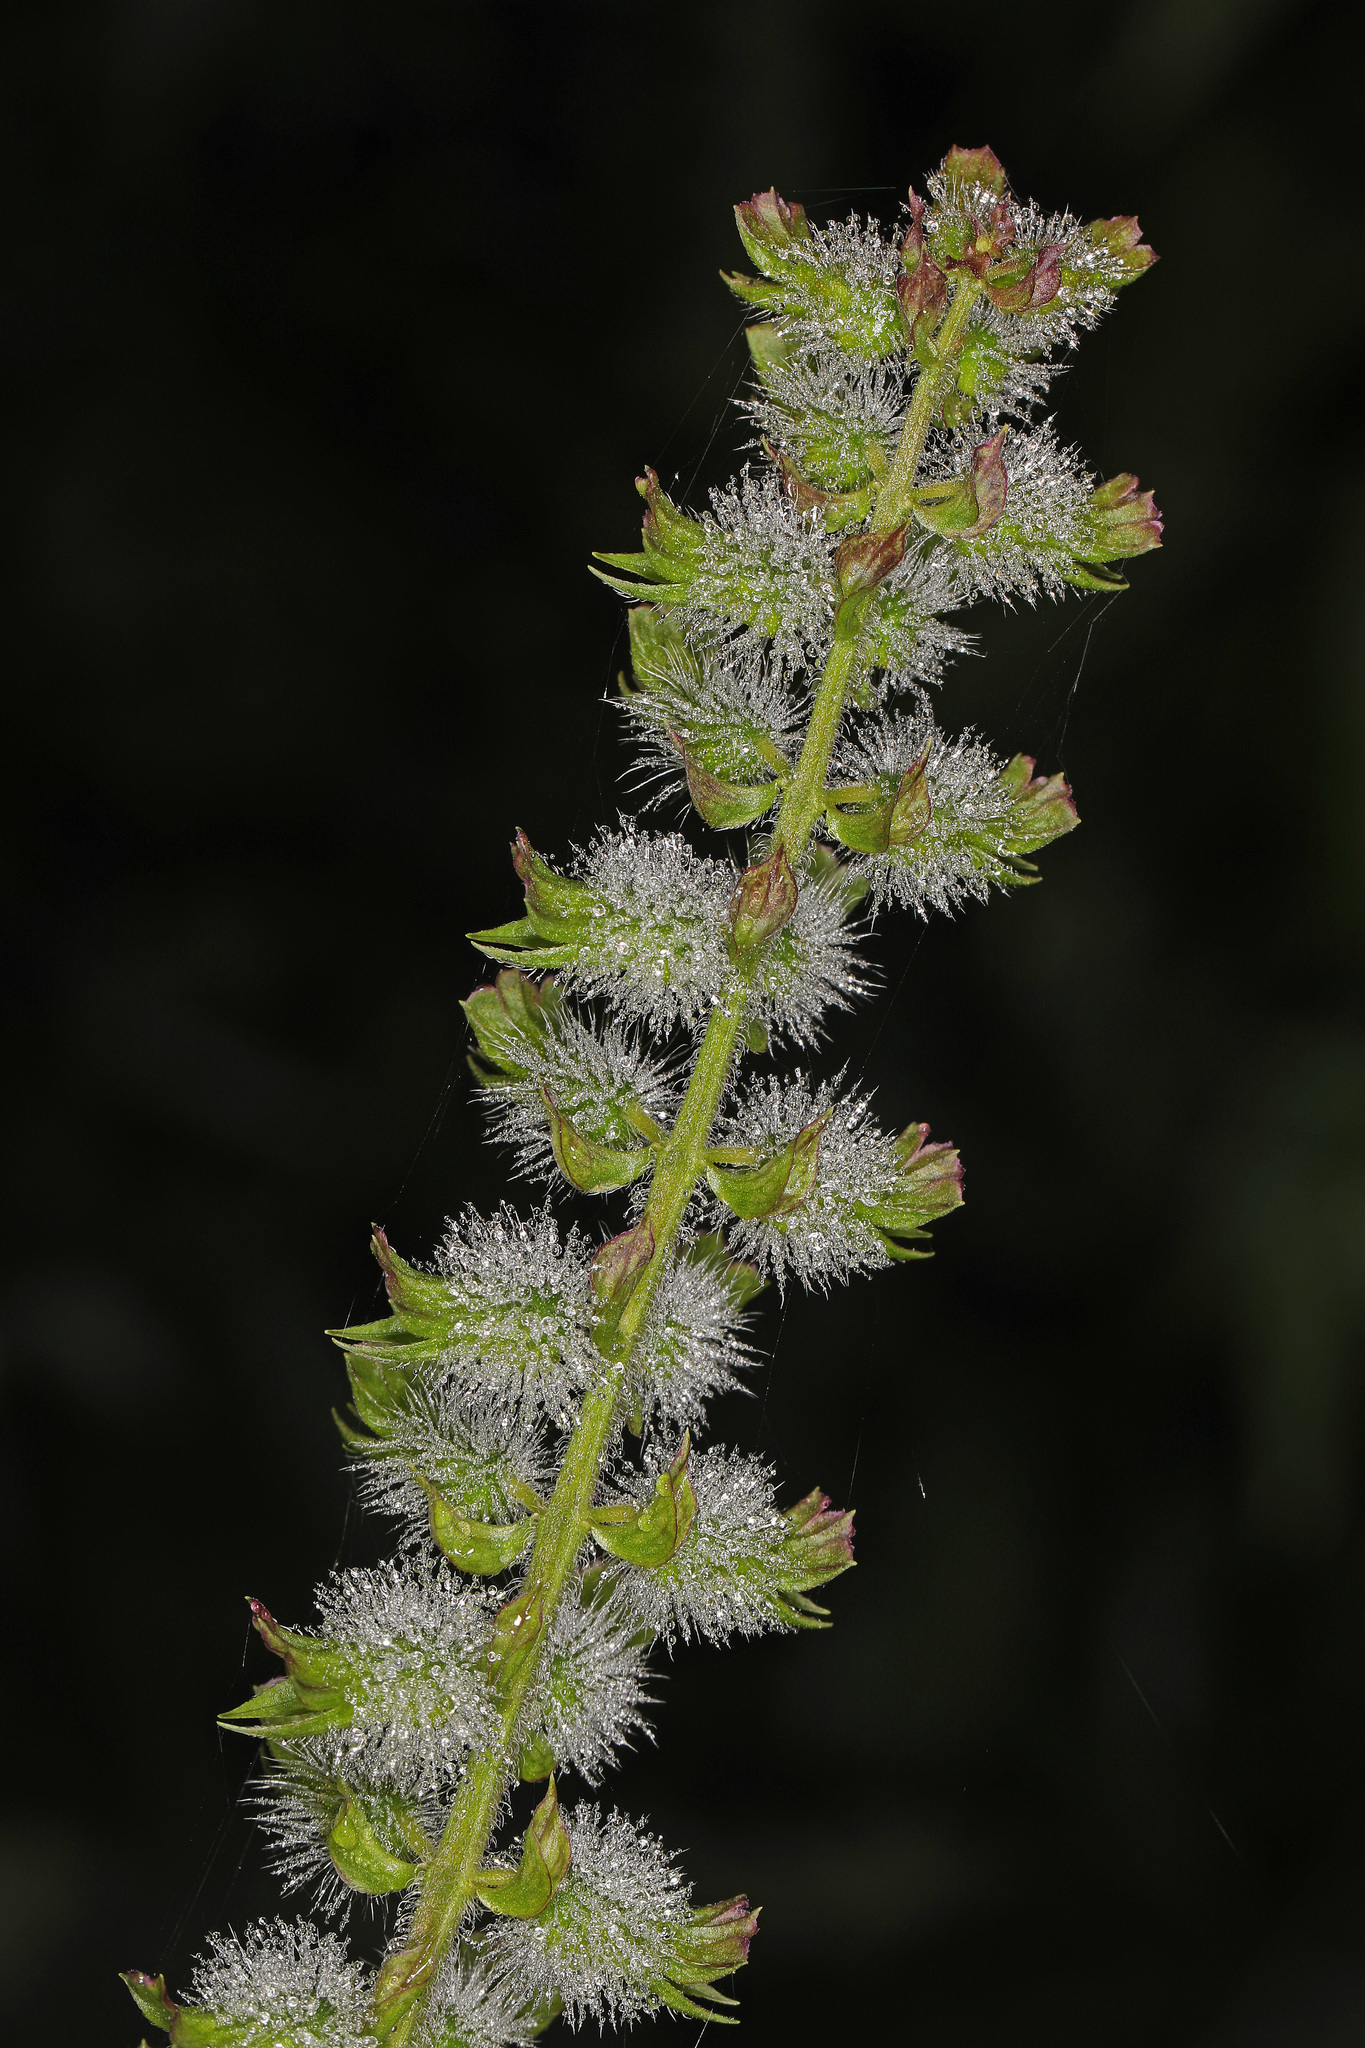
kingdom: Plantae
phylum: Tracheophyta
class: Magnoliopsida
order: Lamiales
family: Lamiaceae
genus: Perilla
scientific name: Perilla frutescens
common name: Perilla
